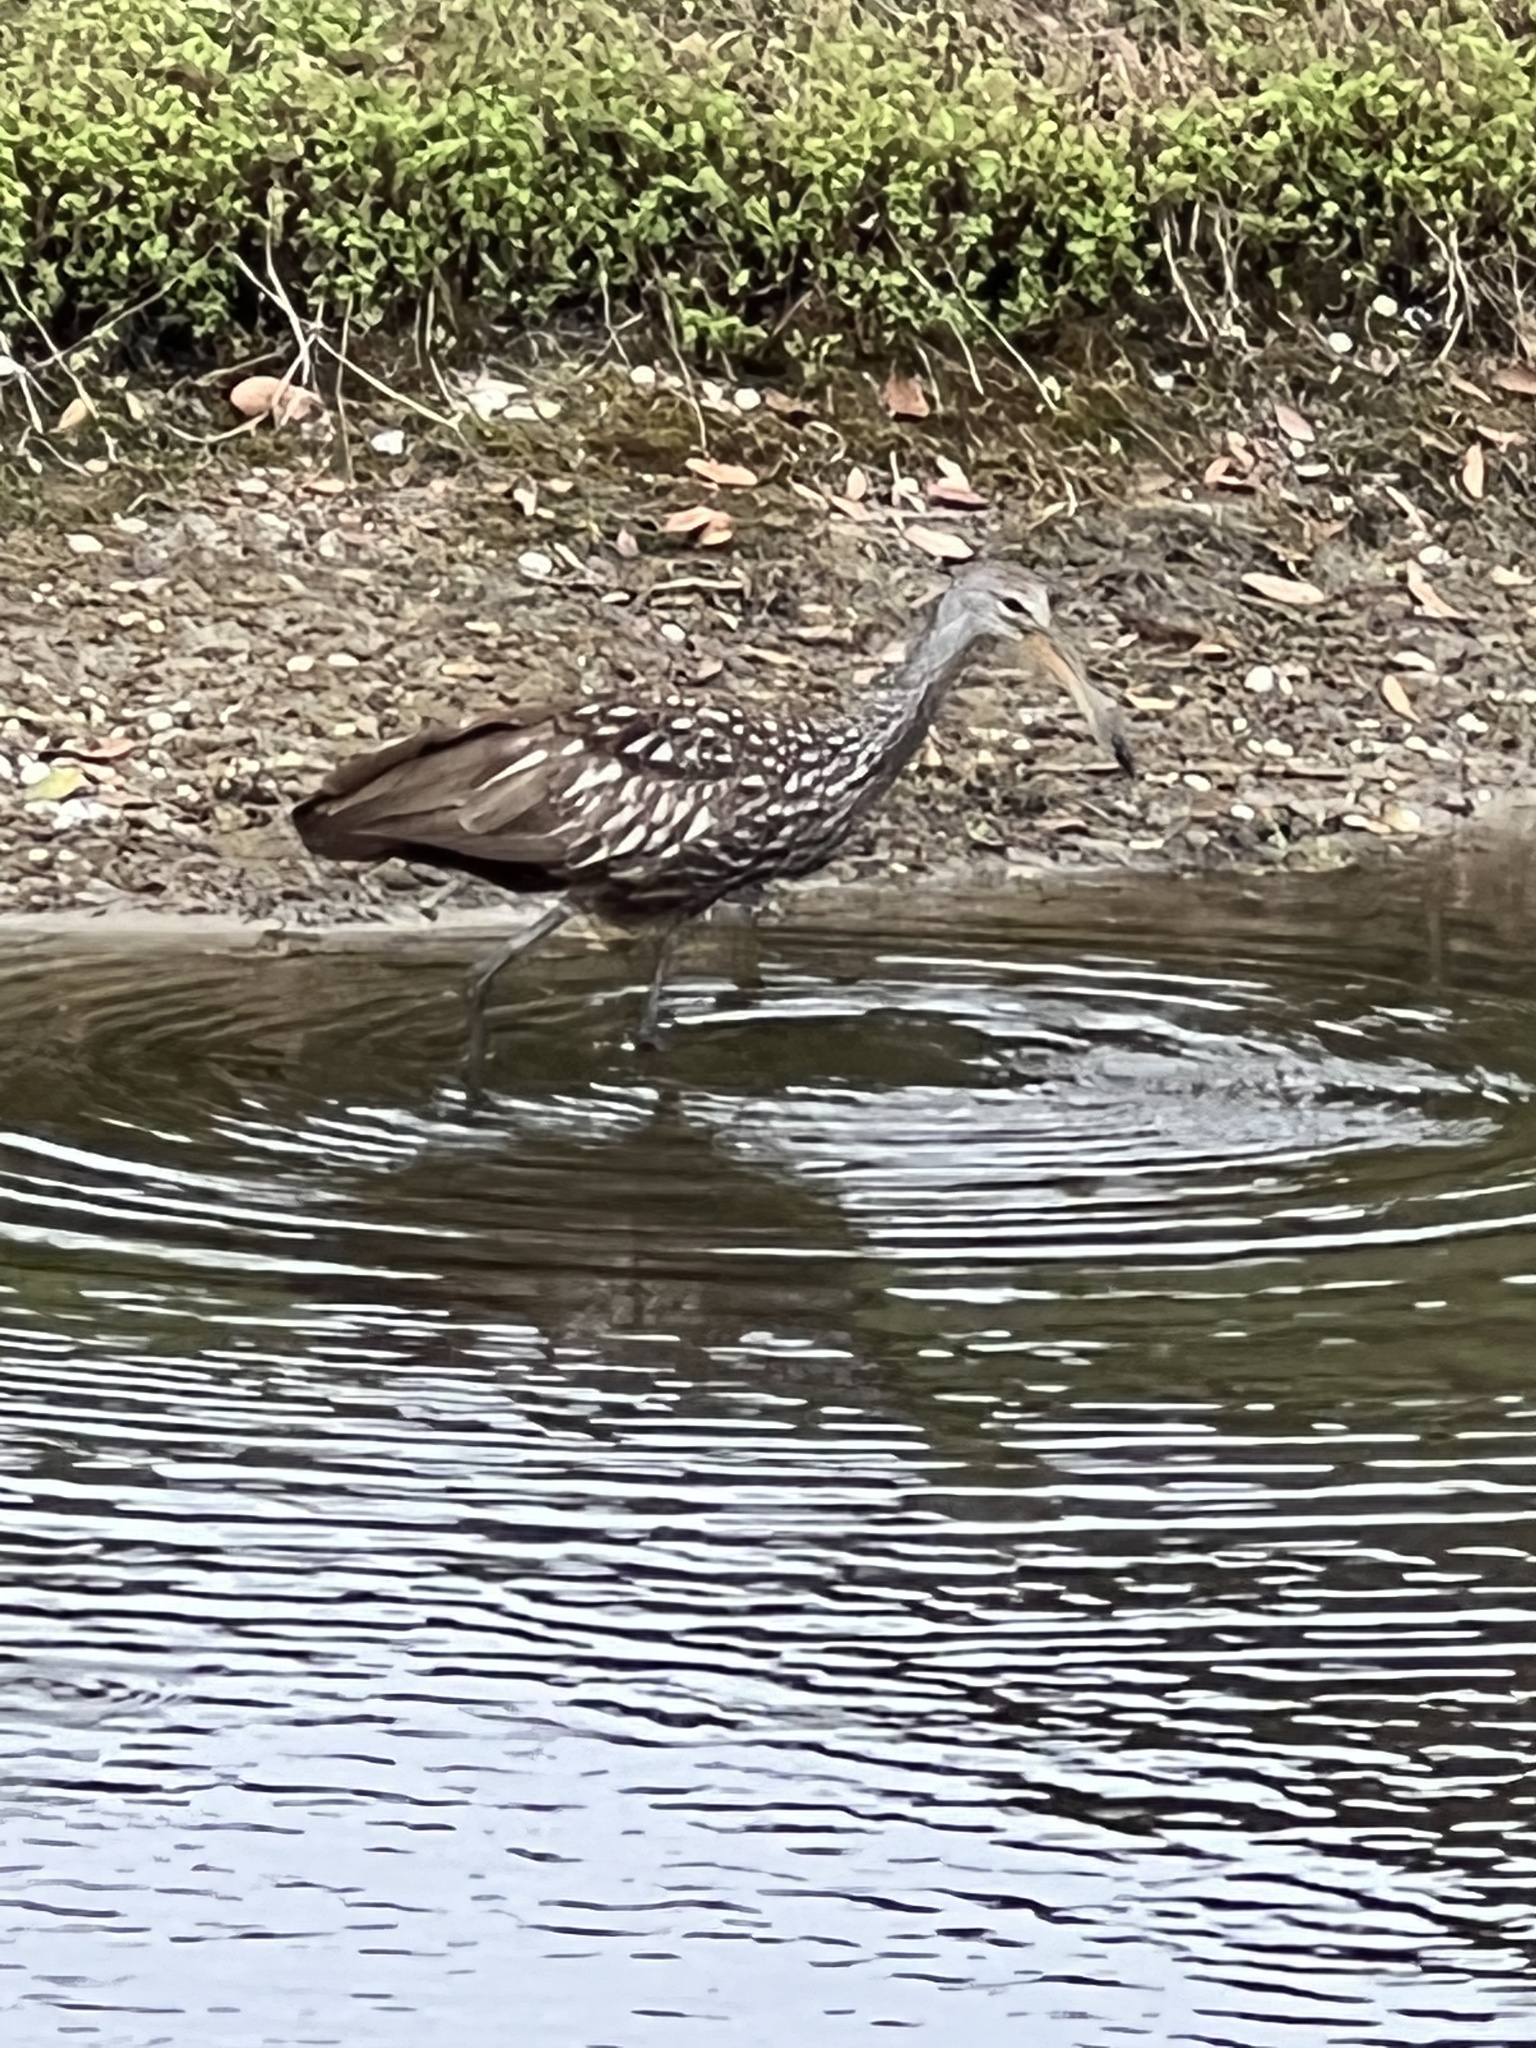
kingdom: Animalia
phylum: Chordata
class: Aves
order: Gruiformes
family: Aramidae
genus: Aramus
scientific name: Aramus guarauna
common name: Limpkin
